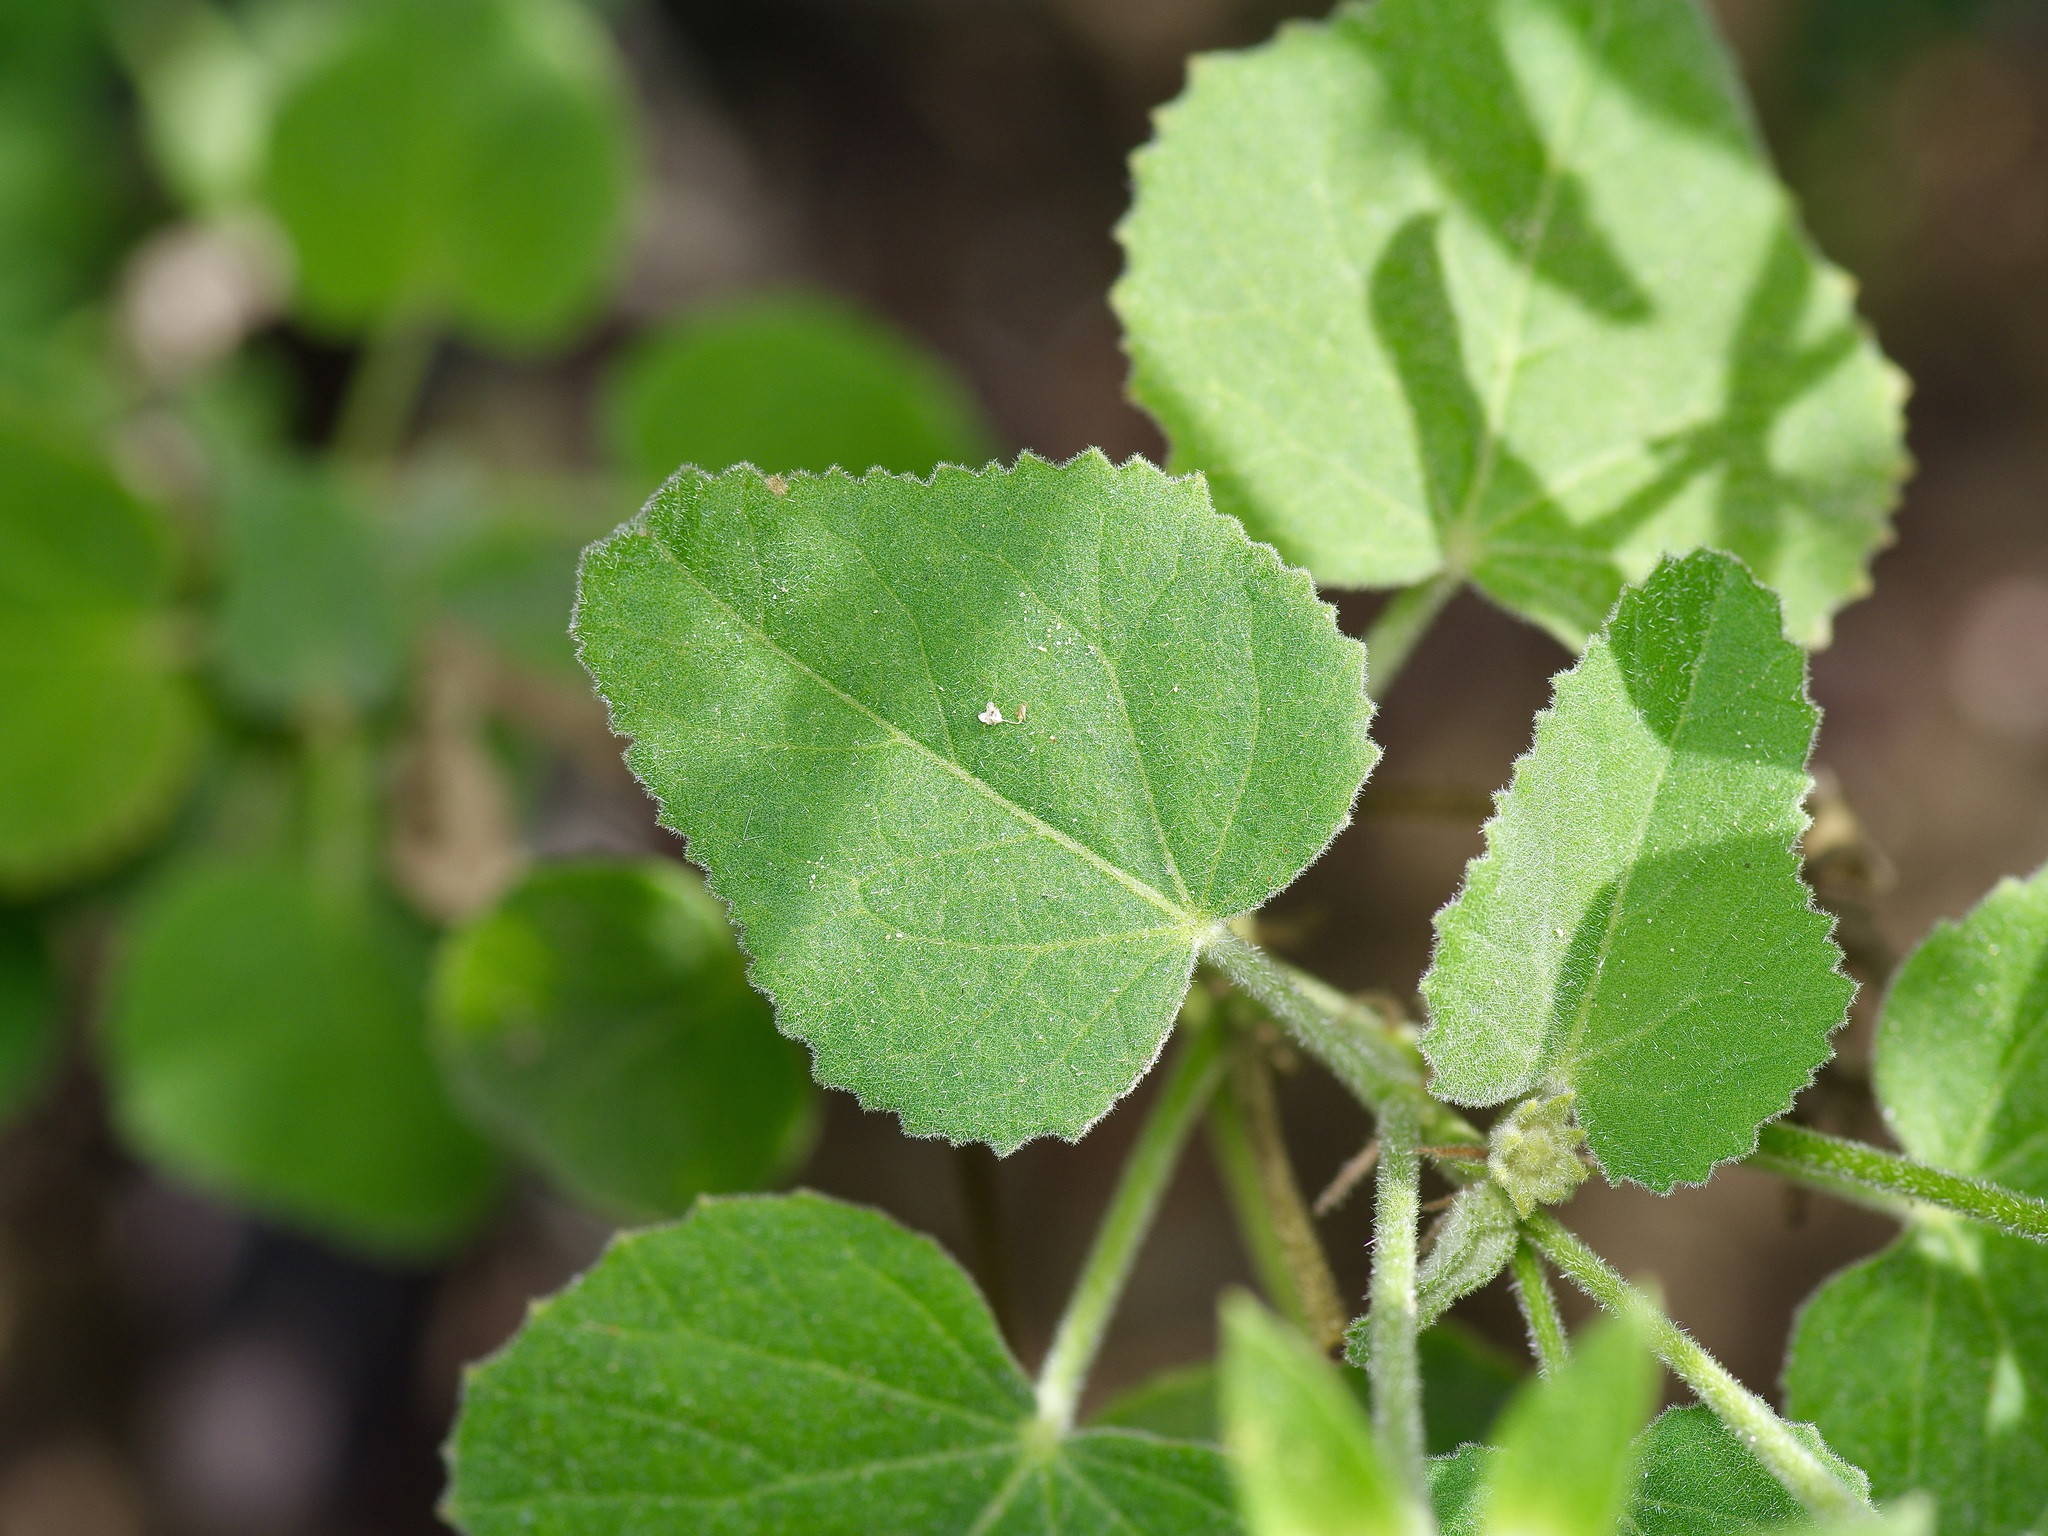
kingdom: Plantae
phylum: Tracheophyta
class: Magnoliopsida
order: Malvales
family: Malvaceae
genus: Hibiscus
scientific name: Hibiscus martianus
